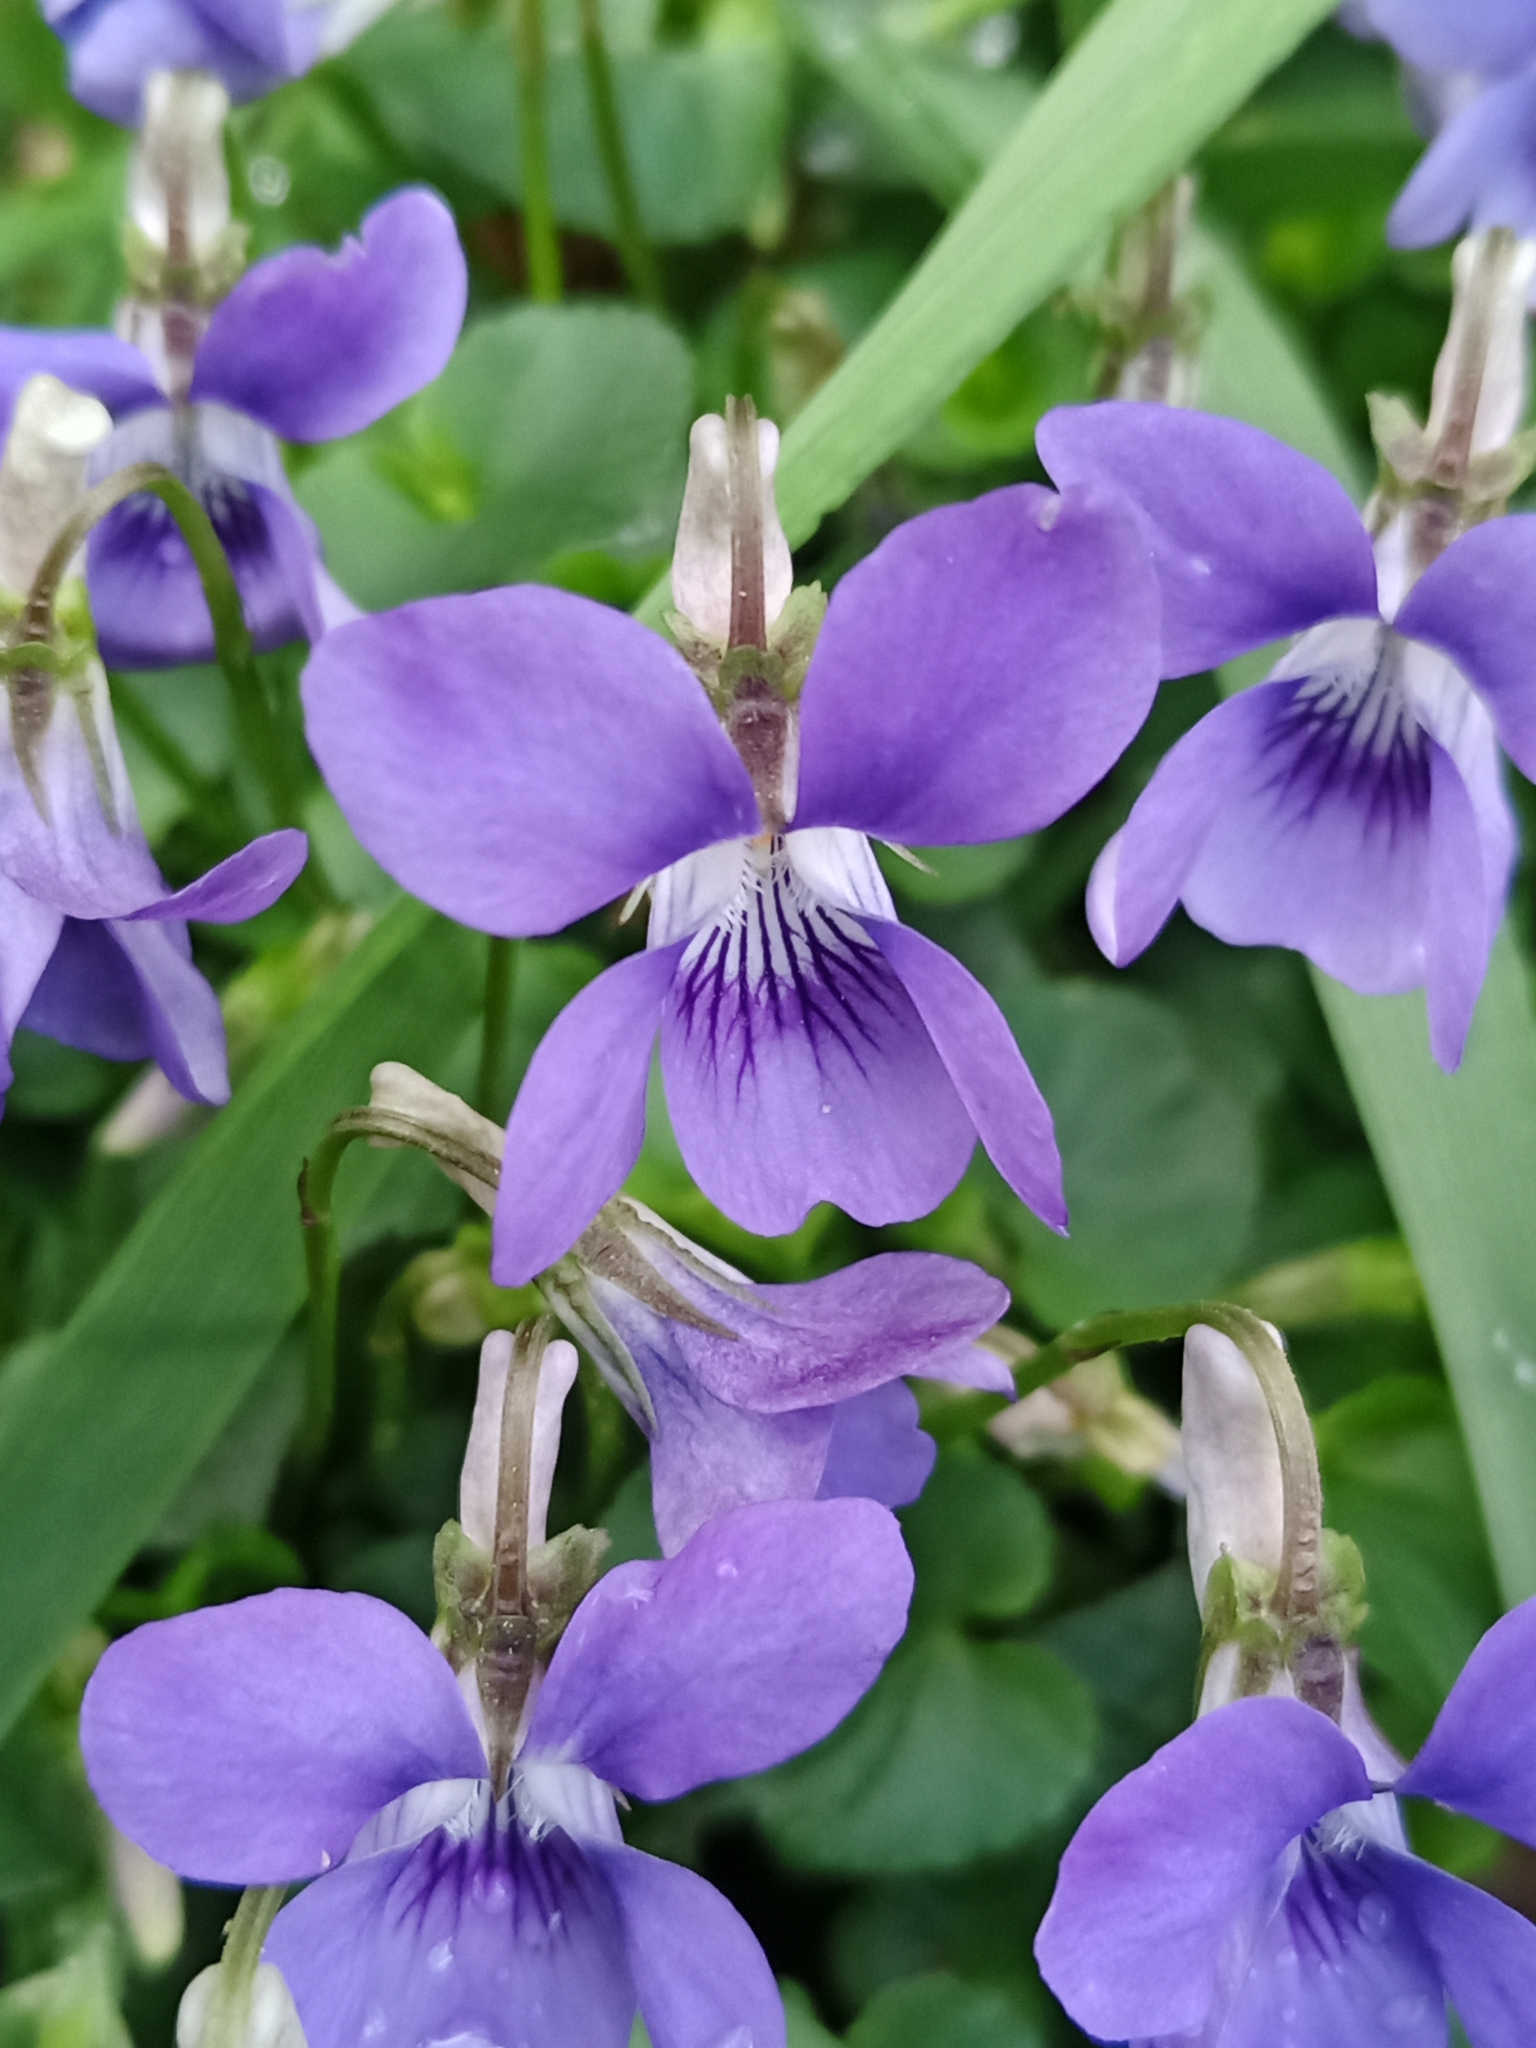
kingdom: Plantae
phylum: Tracheophyta
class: Magnoliopsida
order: Malpighiales
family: Violaceae
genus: Viola
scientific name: Viola riviniana
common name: Common dog-violet
